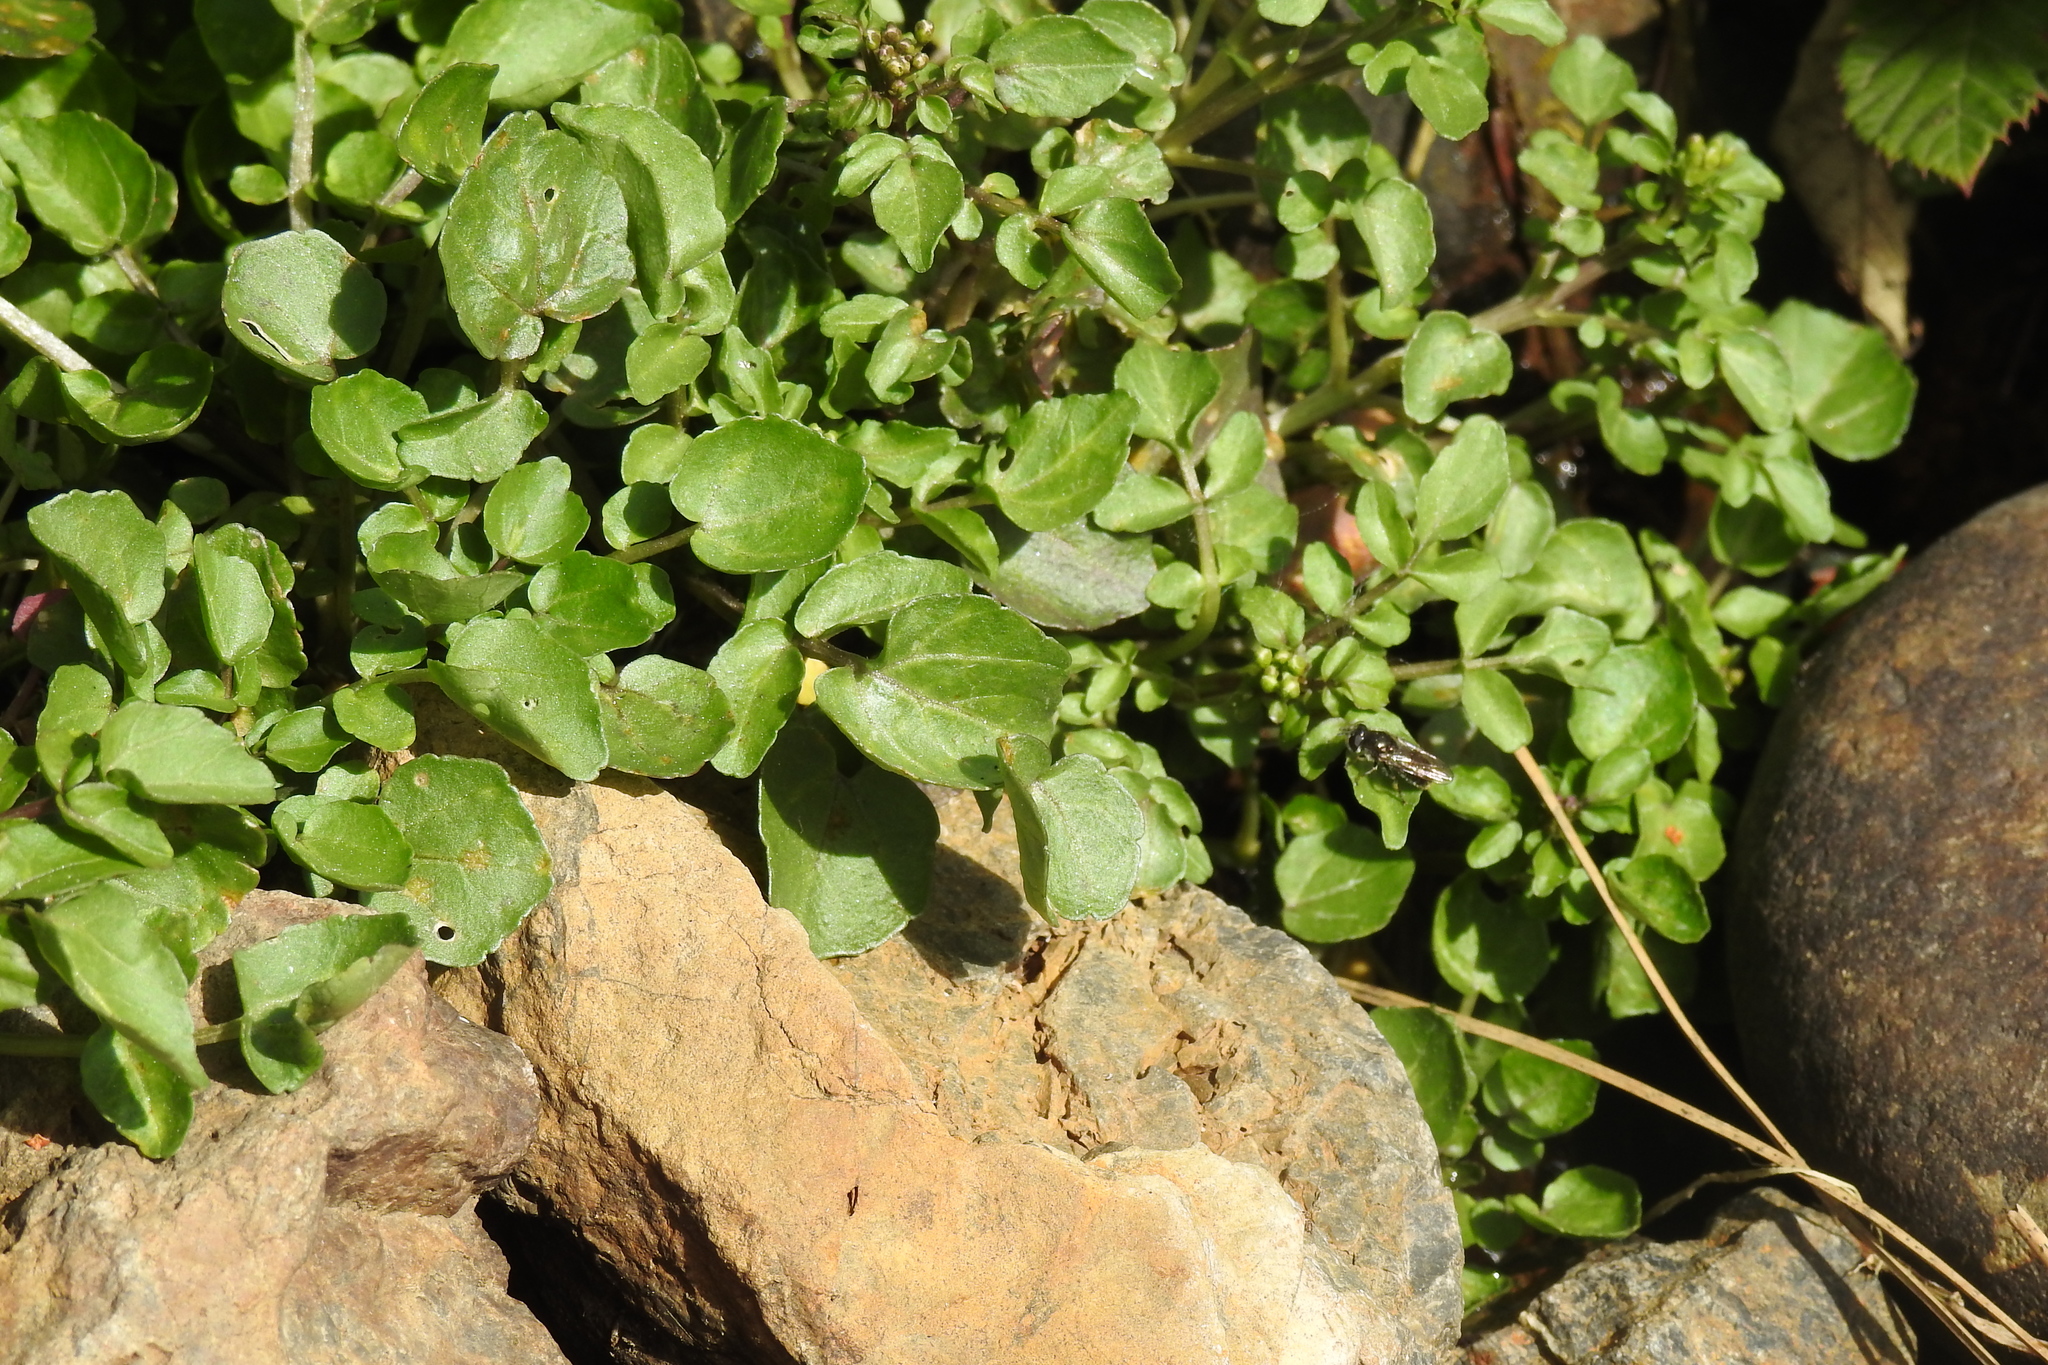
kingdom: Plantae
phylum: Tracheophyta
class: Magnoliopsida
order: Brassicales
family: Brassicaceae
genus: Nasturtium
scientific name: Nasturtium officinale
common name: Watercress
